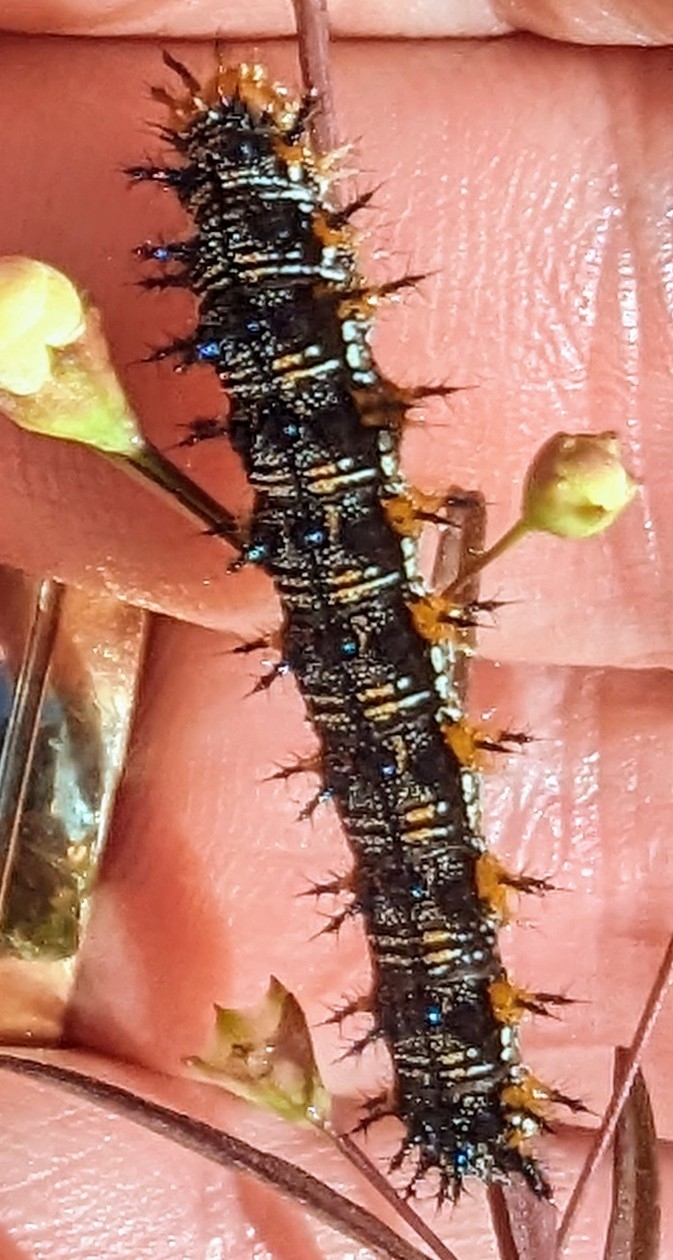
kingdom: Animalia
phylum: Arthropoda
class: Insecta
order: Lepidoptera
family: Nymphalidae
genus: Junonia
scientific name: Junonia coenia
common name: Common buckeye
